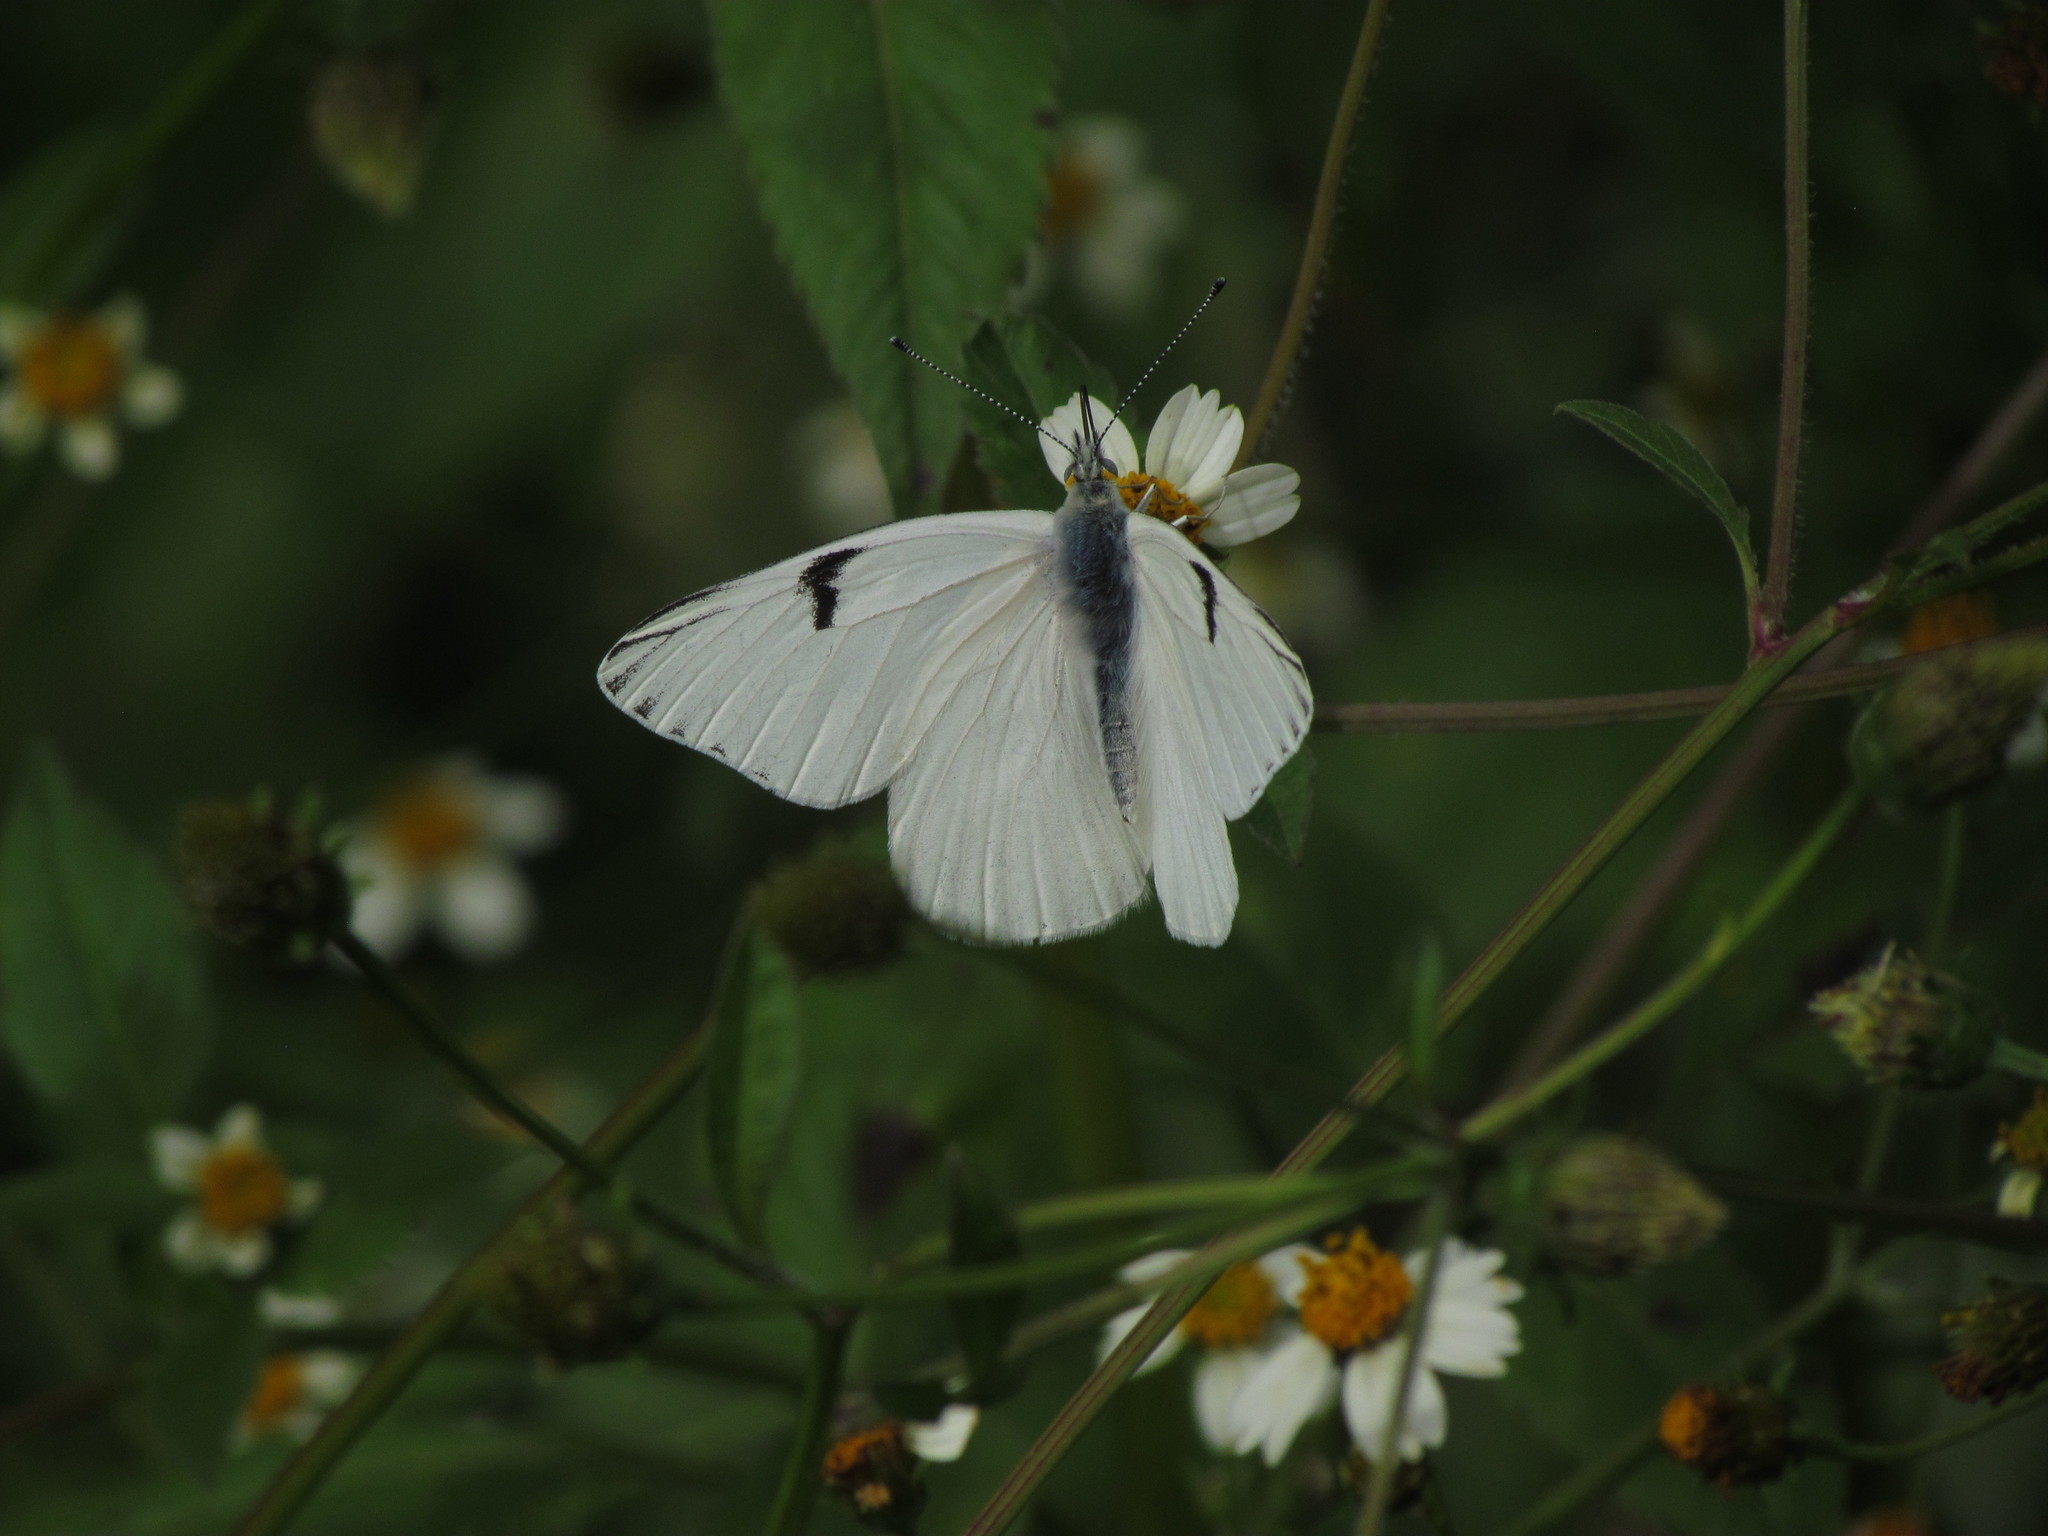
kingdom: Animalia
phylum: Arthropoda
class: Insecta
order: Lepidoptera
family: Pieridae
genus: Tatochila
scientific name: Tatochila mercedis
